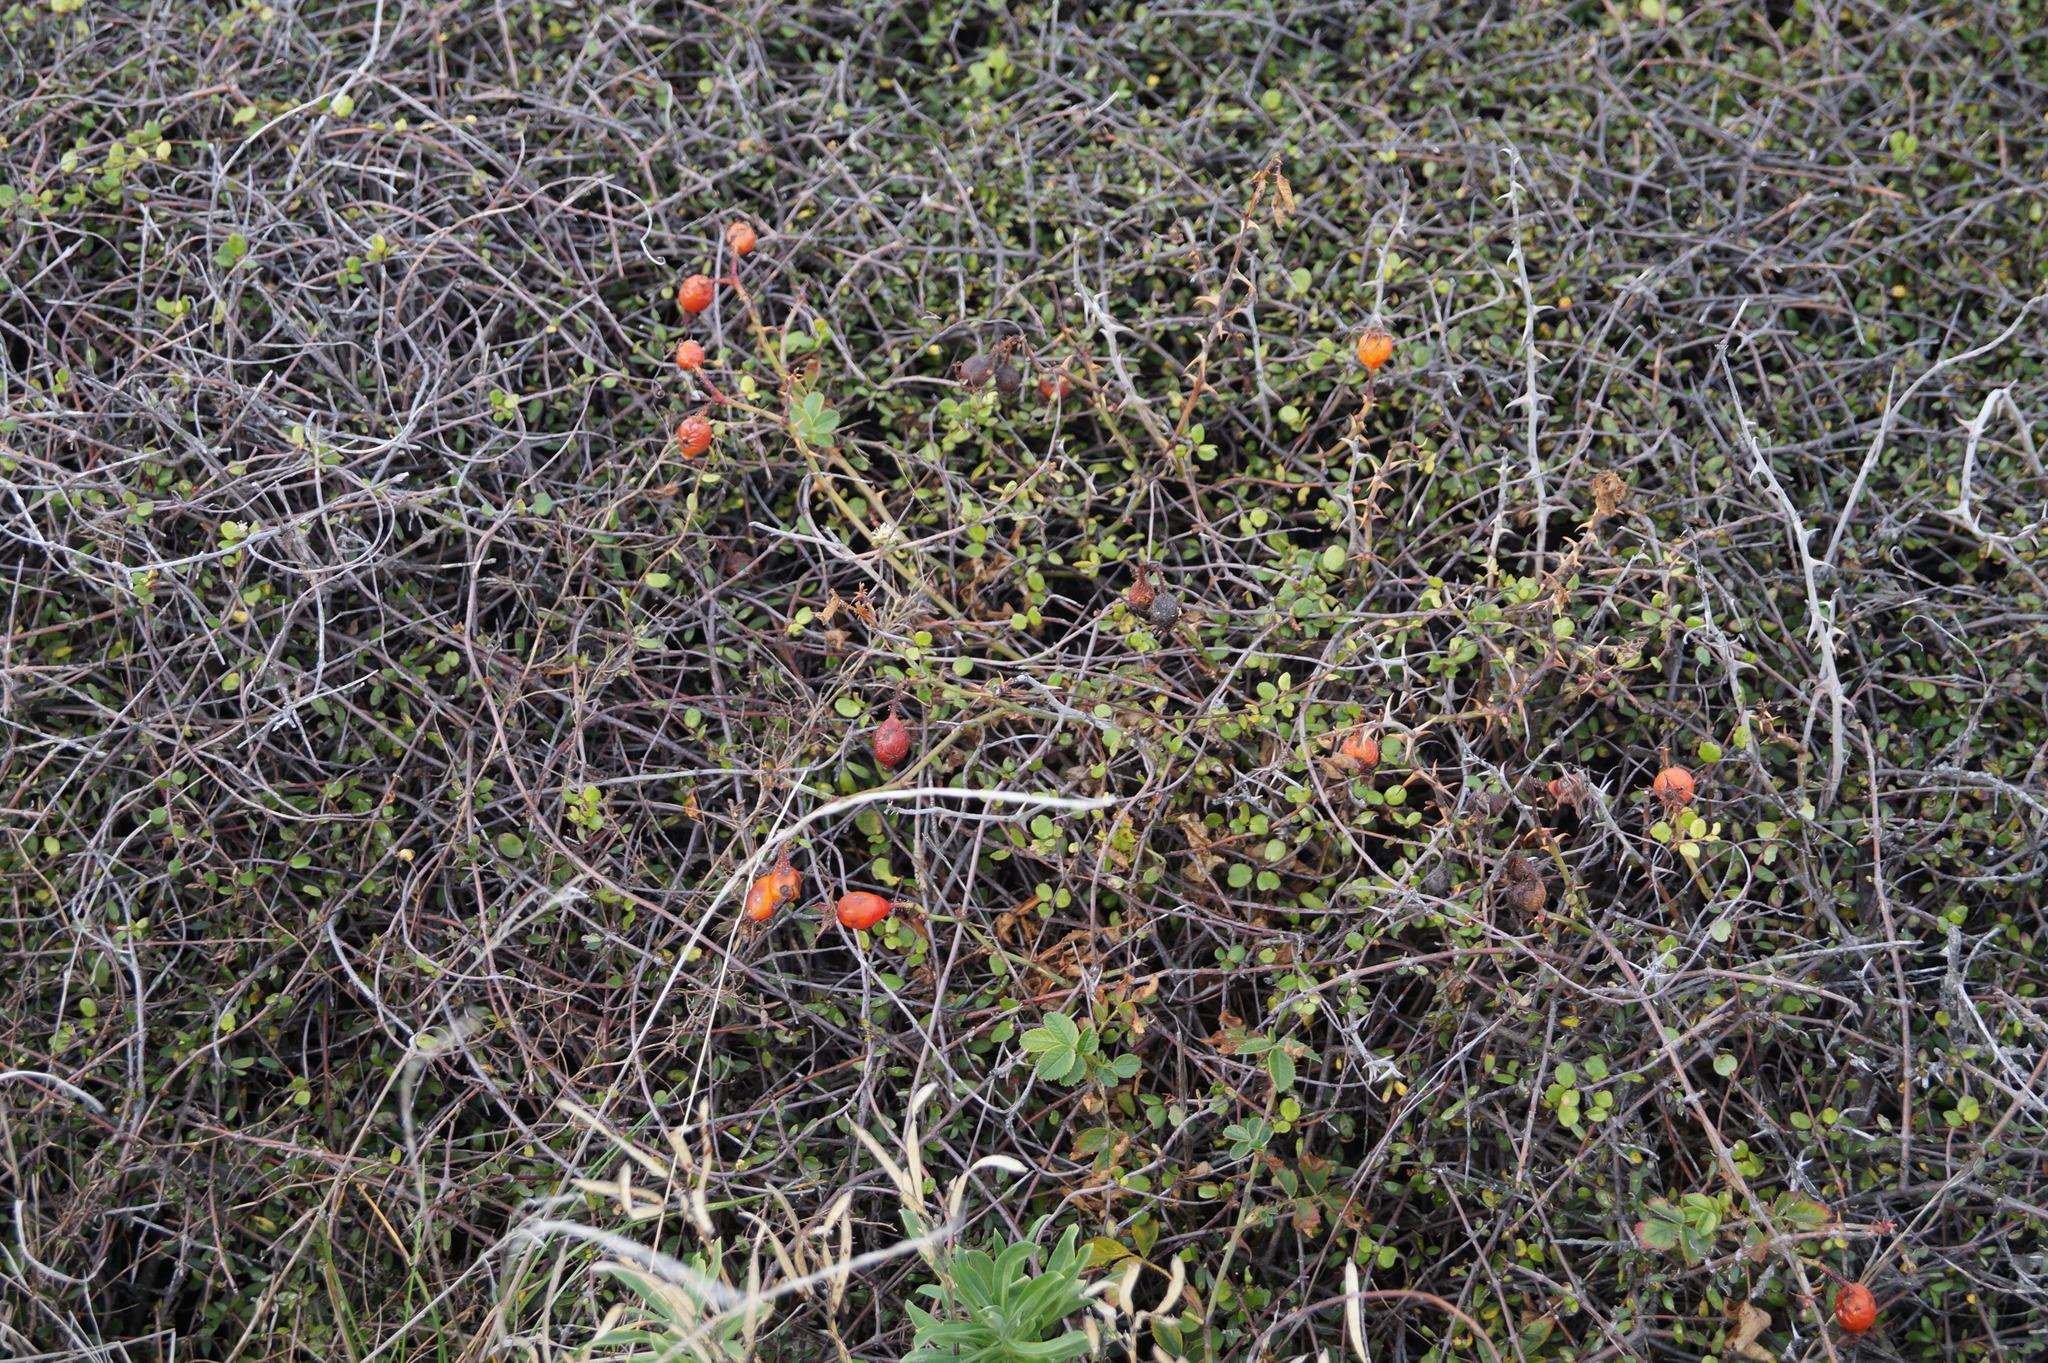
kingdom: Plantae
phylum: Tracheophyta
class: Magnoliopsida
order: Rosales
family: Rosaceae
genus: Rosa
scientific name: Rosa rubiginosa
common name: Sweet-briar
